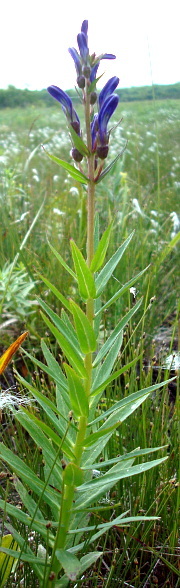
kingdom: Plantae
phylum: Tracheophyta
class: Magnoliopsida
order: Asterales
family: Campanulaceae
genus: Lobelia
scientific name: Lobelia sessilifolia
